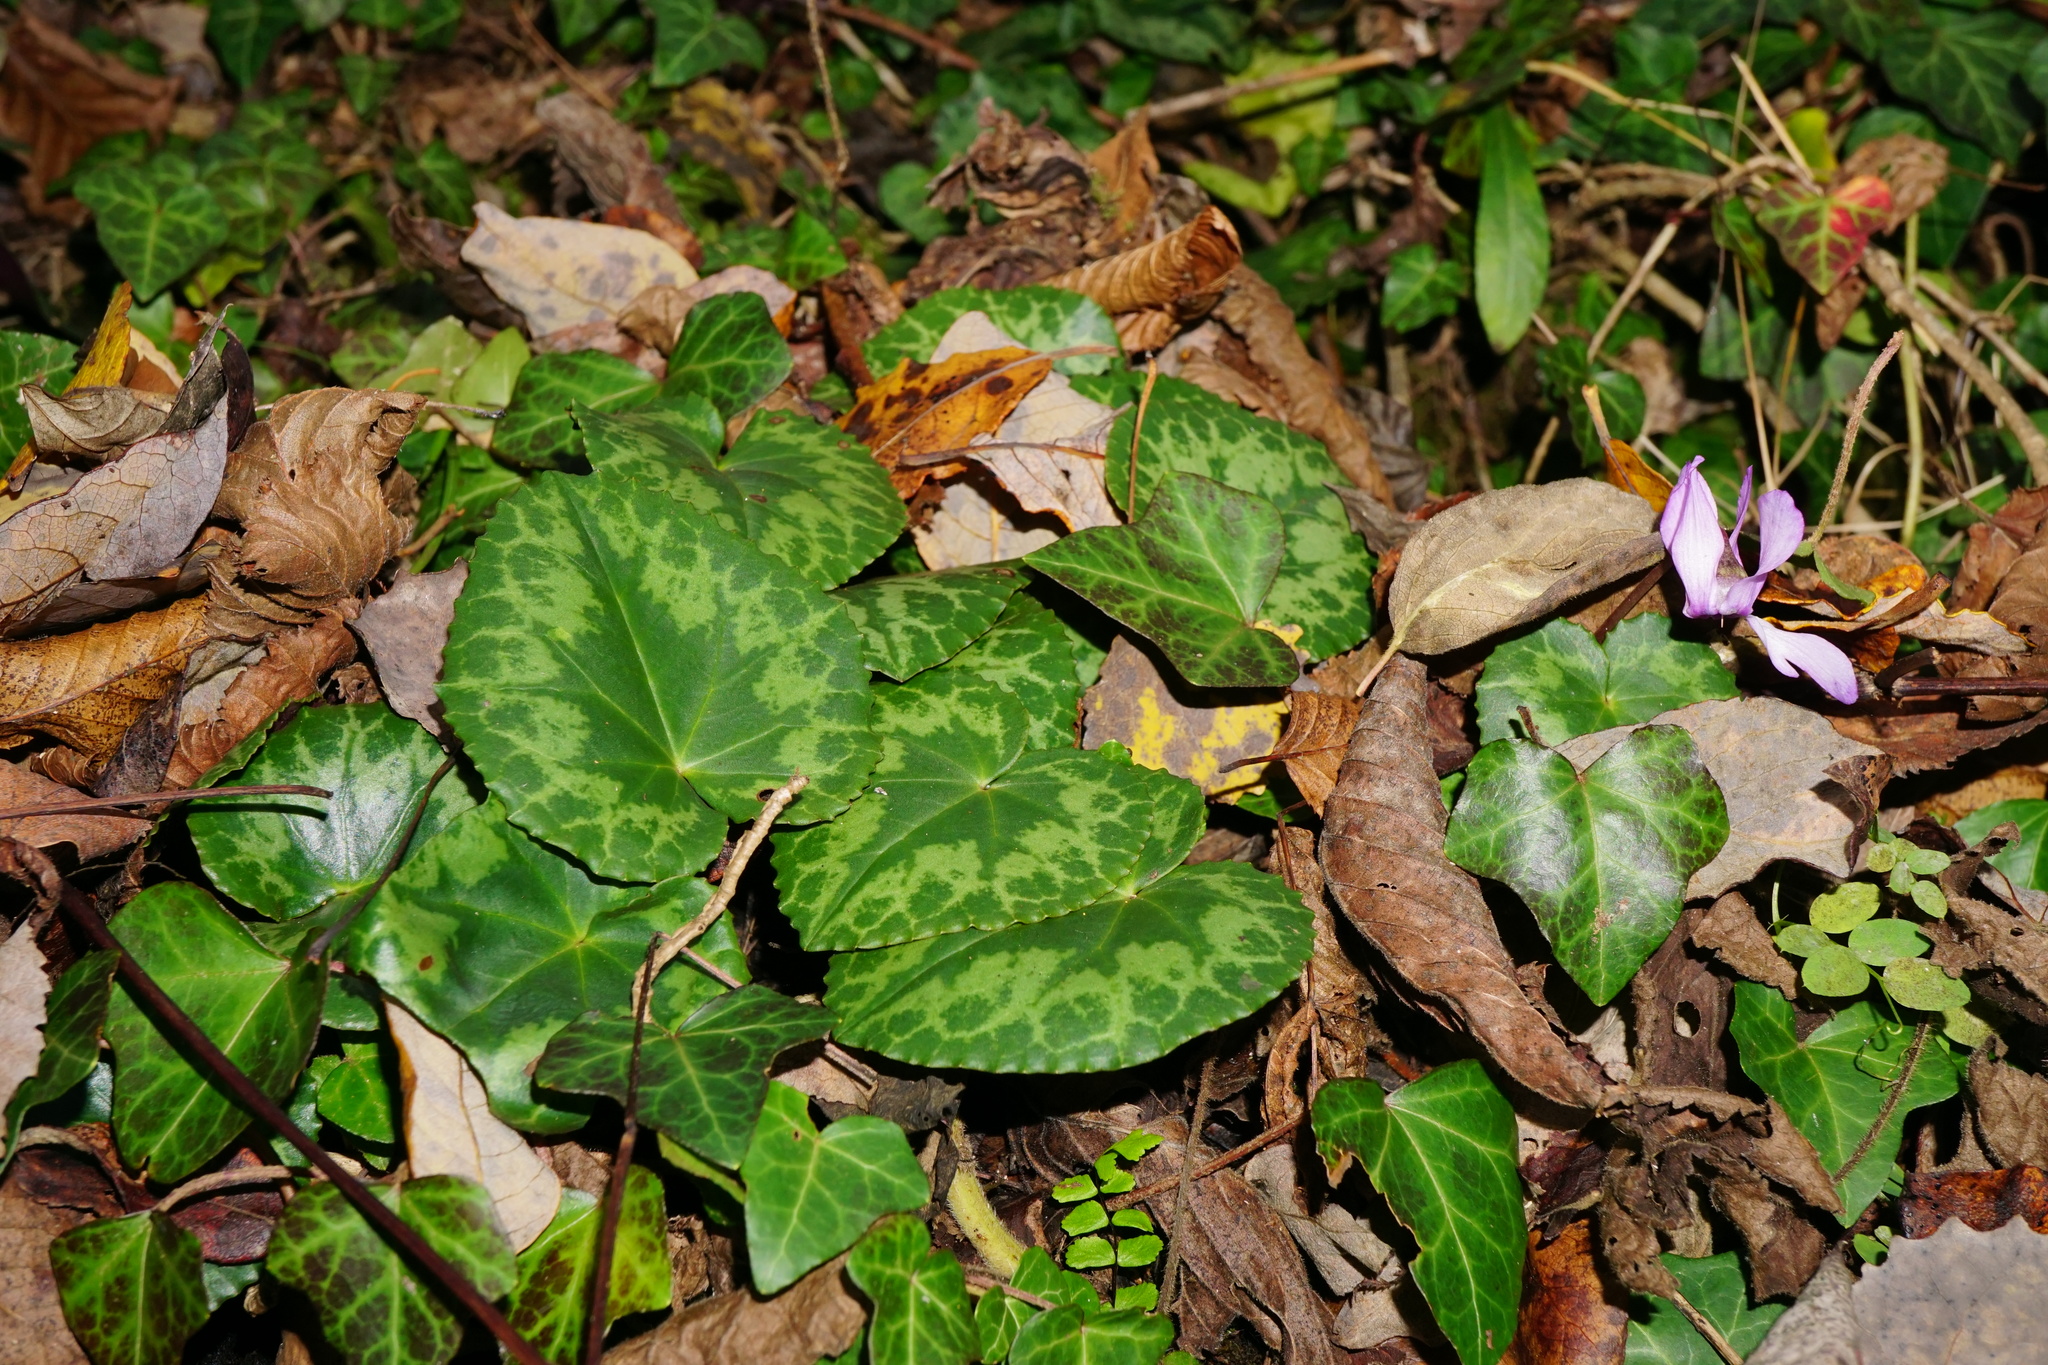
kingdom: Plantae
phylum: Tracheophyta
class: Magnoliopsida
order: Ericales
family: Primulaceae
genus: Cyclamen
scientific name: Cyclamen purpurascens
